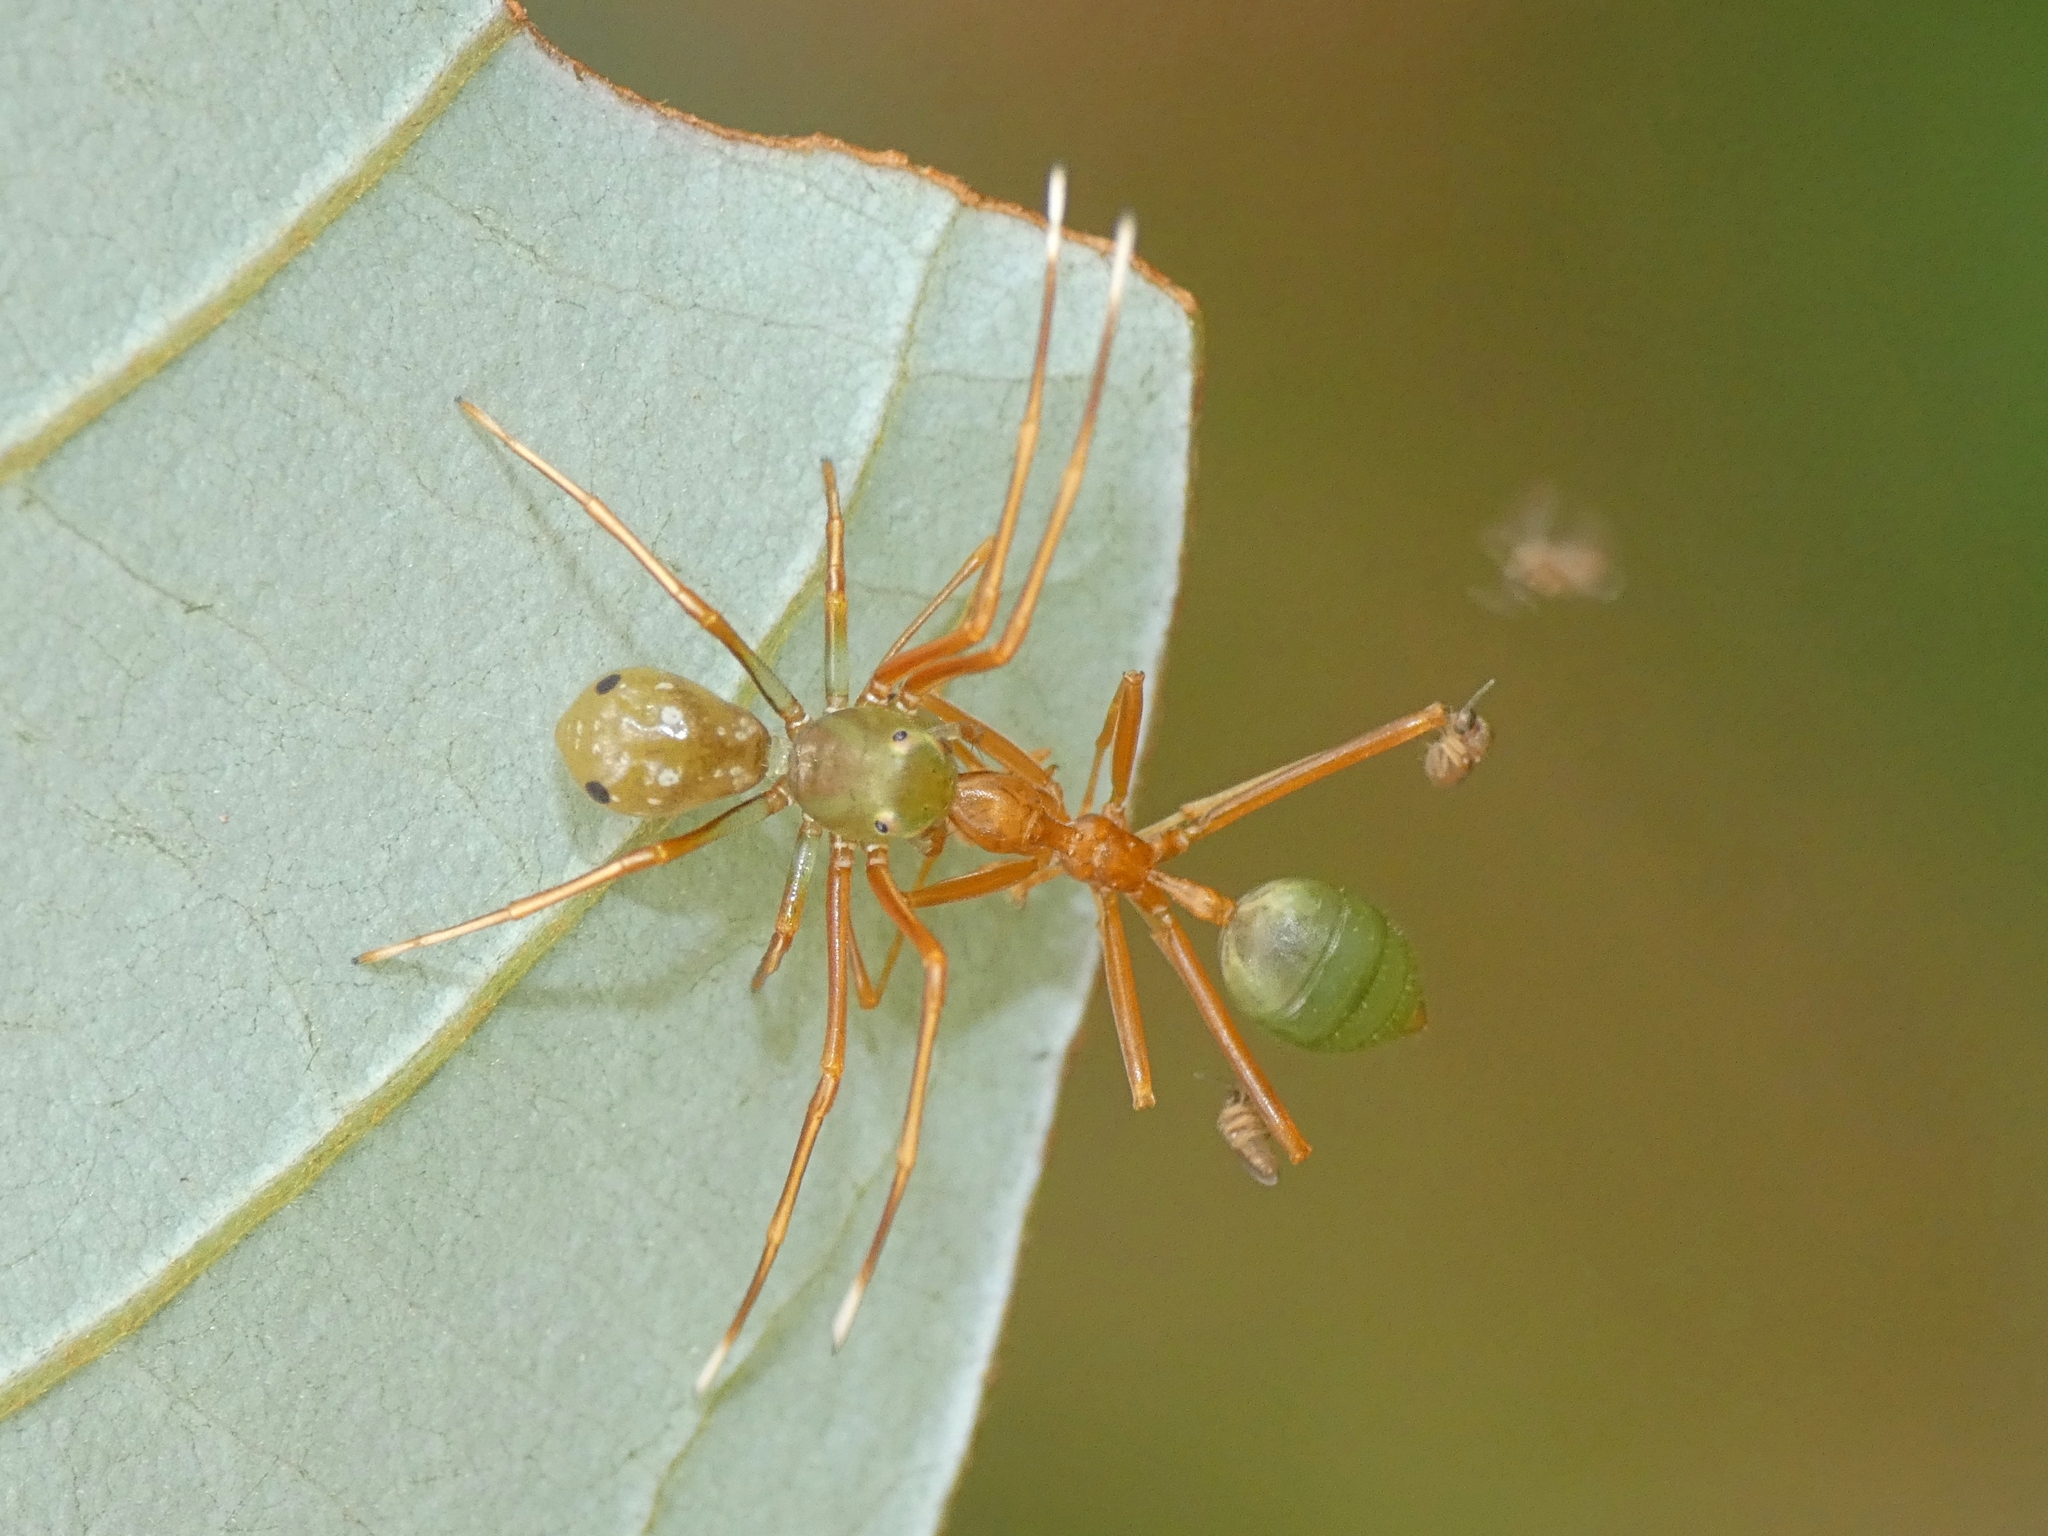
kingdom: Animalia
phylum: Arthropoda
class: Arachnida
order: Araneae
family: Thomisidae
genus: Amyciaea
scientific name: Amyciaea albomaculata
